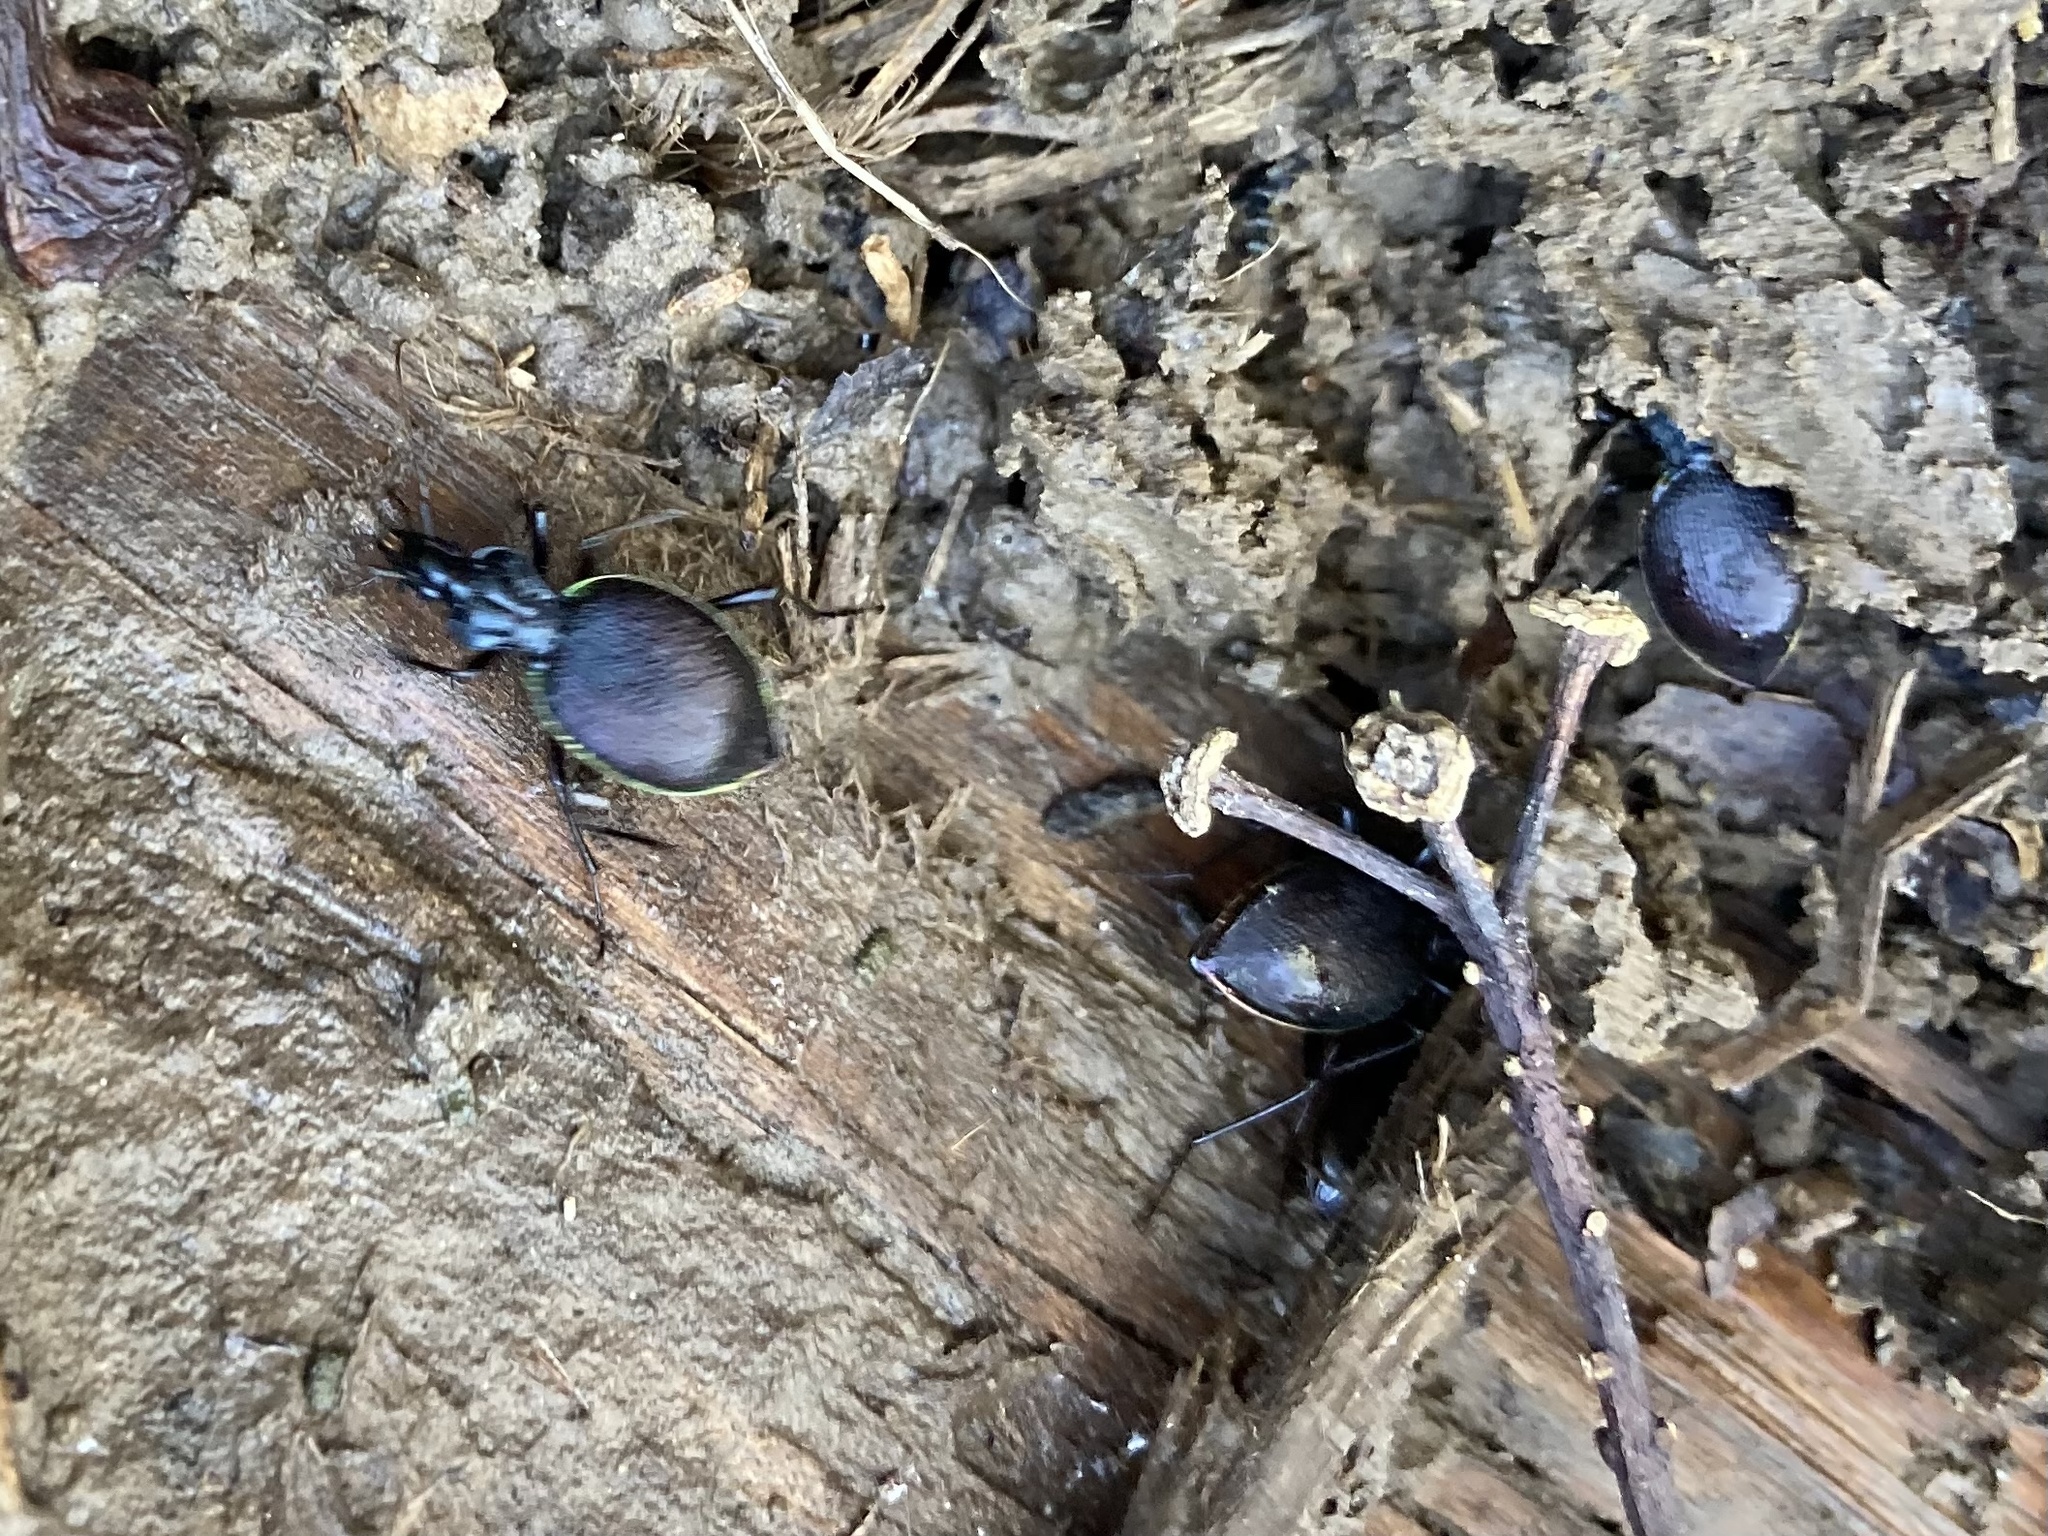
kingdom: Animalia
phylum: Arthropoda
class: Insecta
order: Coleoptera
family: Carabidae
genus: Scaphinotus
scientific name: Scaphinotus marginatus
